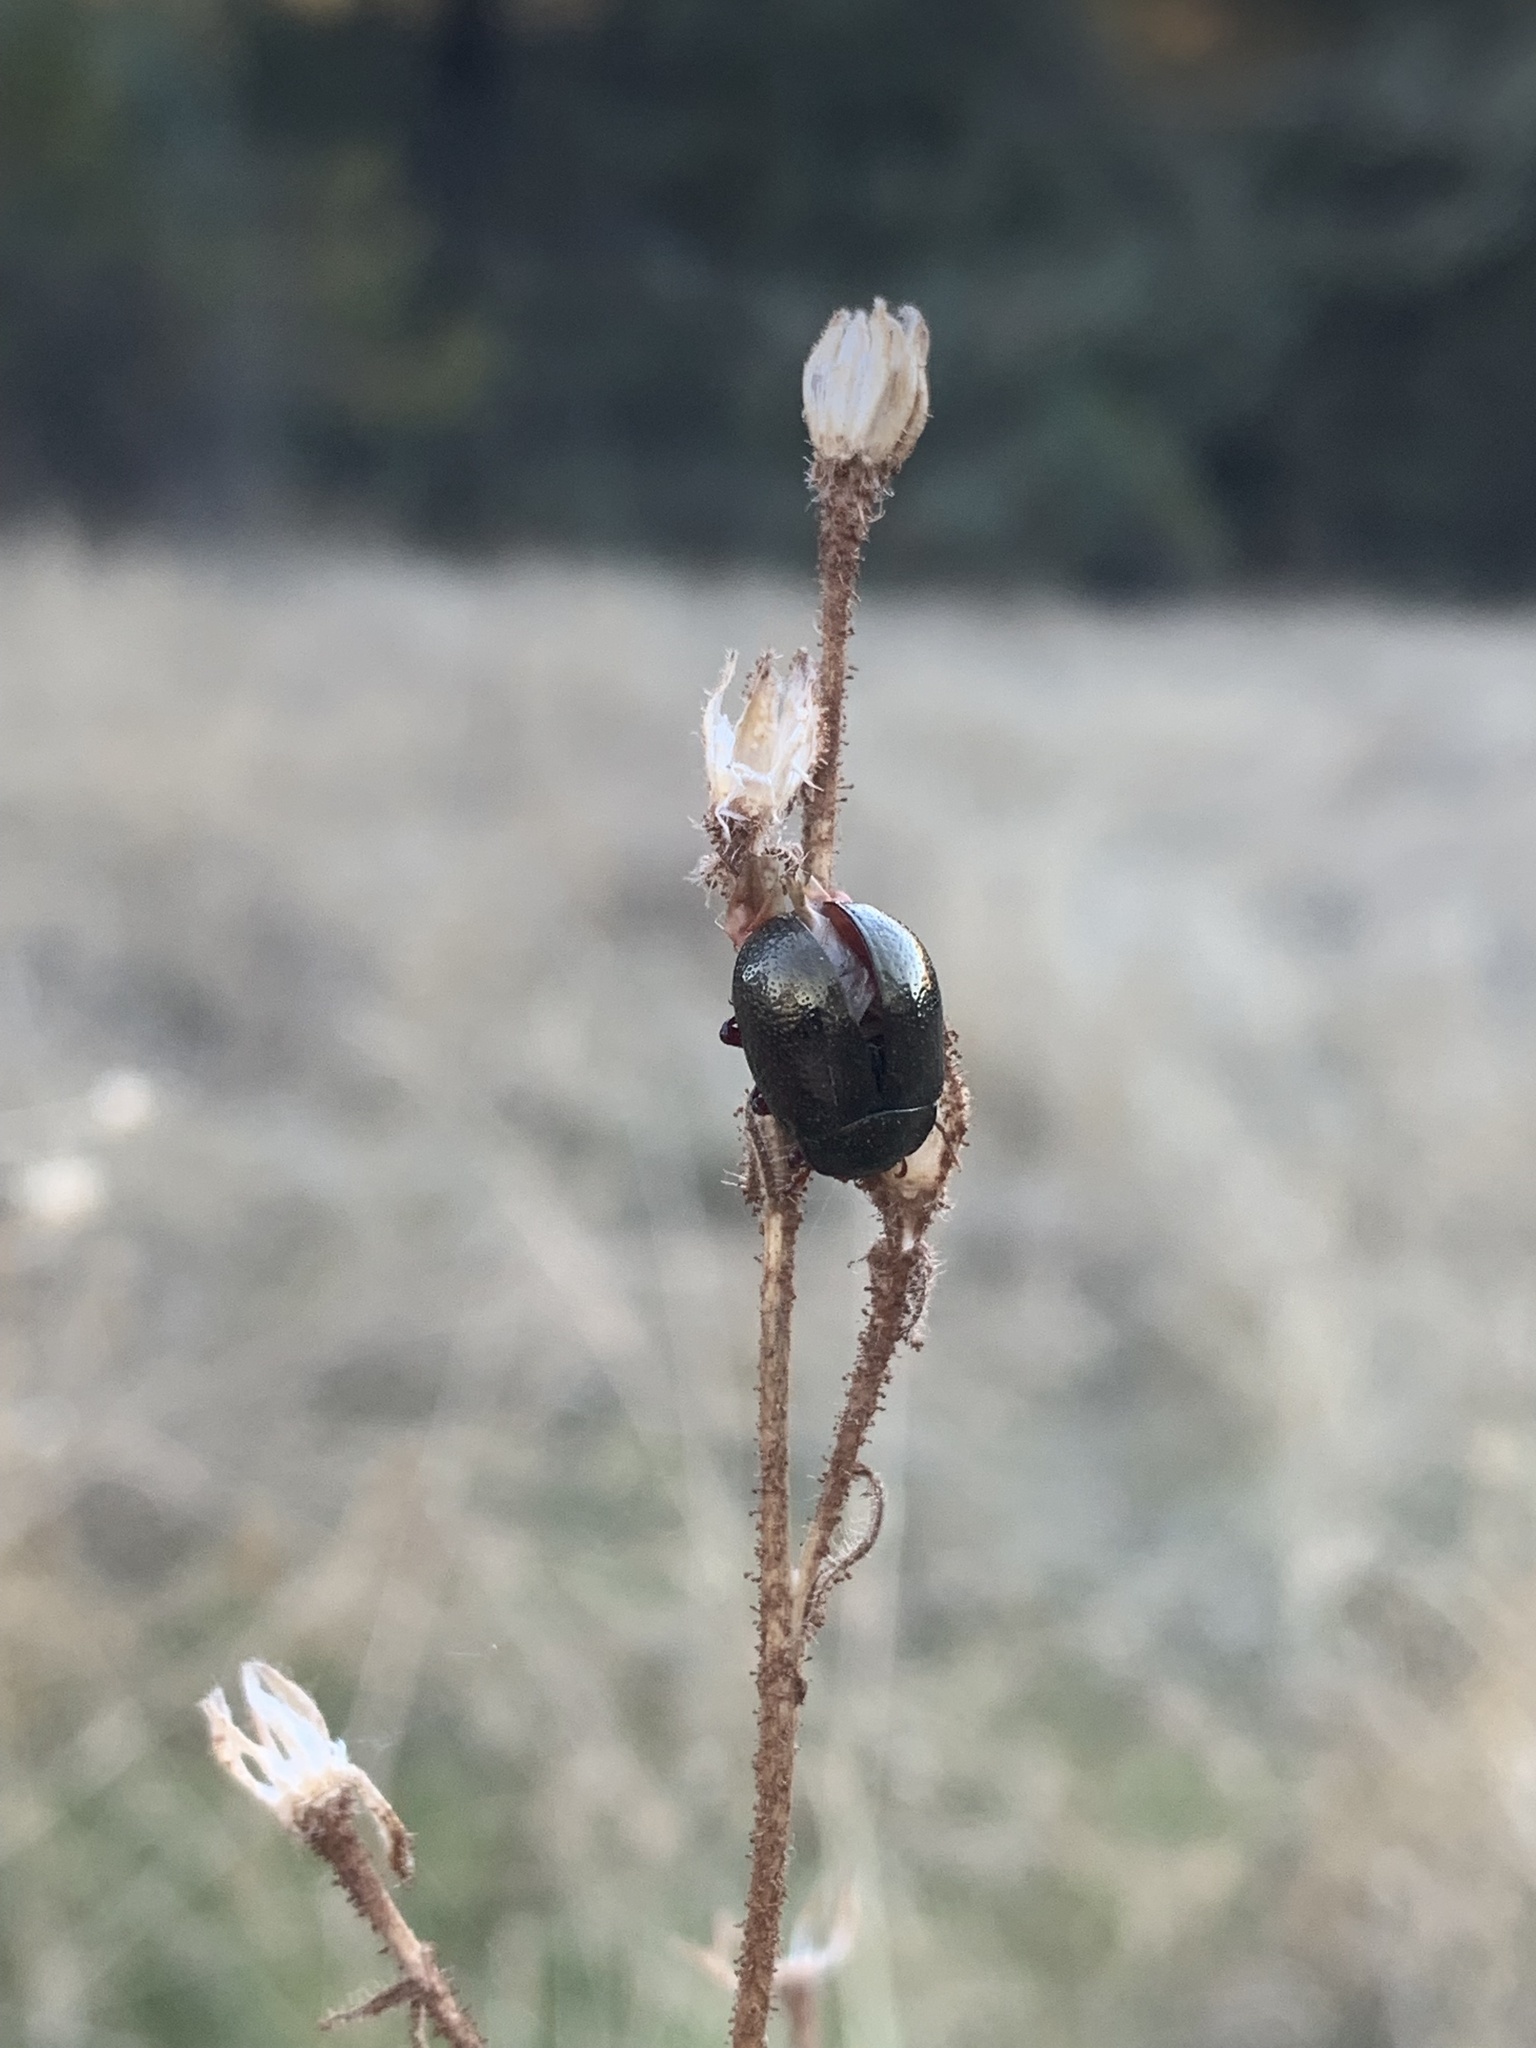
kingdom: Animalia
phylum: Arthropoda
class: Insecta
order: Coleoptera
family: Chrysomelidae
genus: Chrysolina
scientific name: Chrysolina bankii
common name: Leaf beetle
